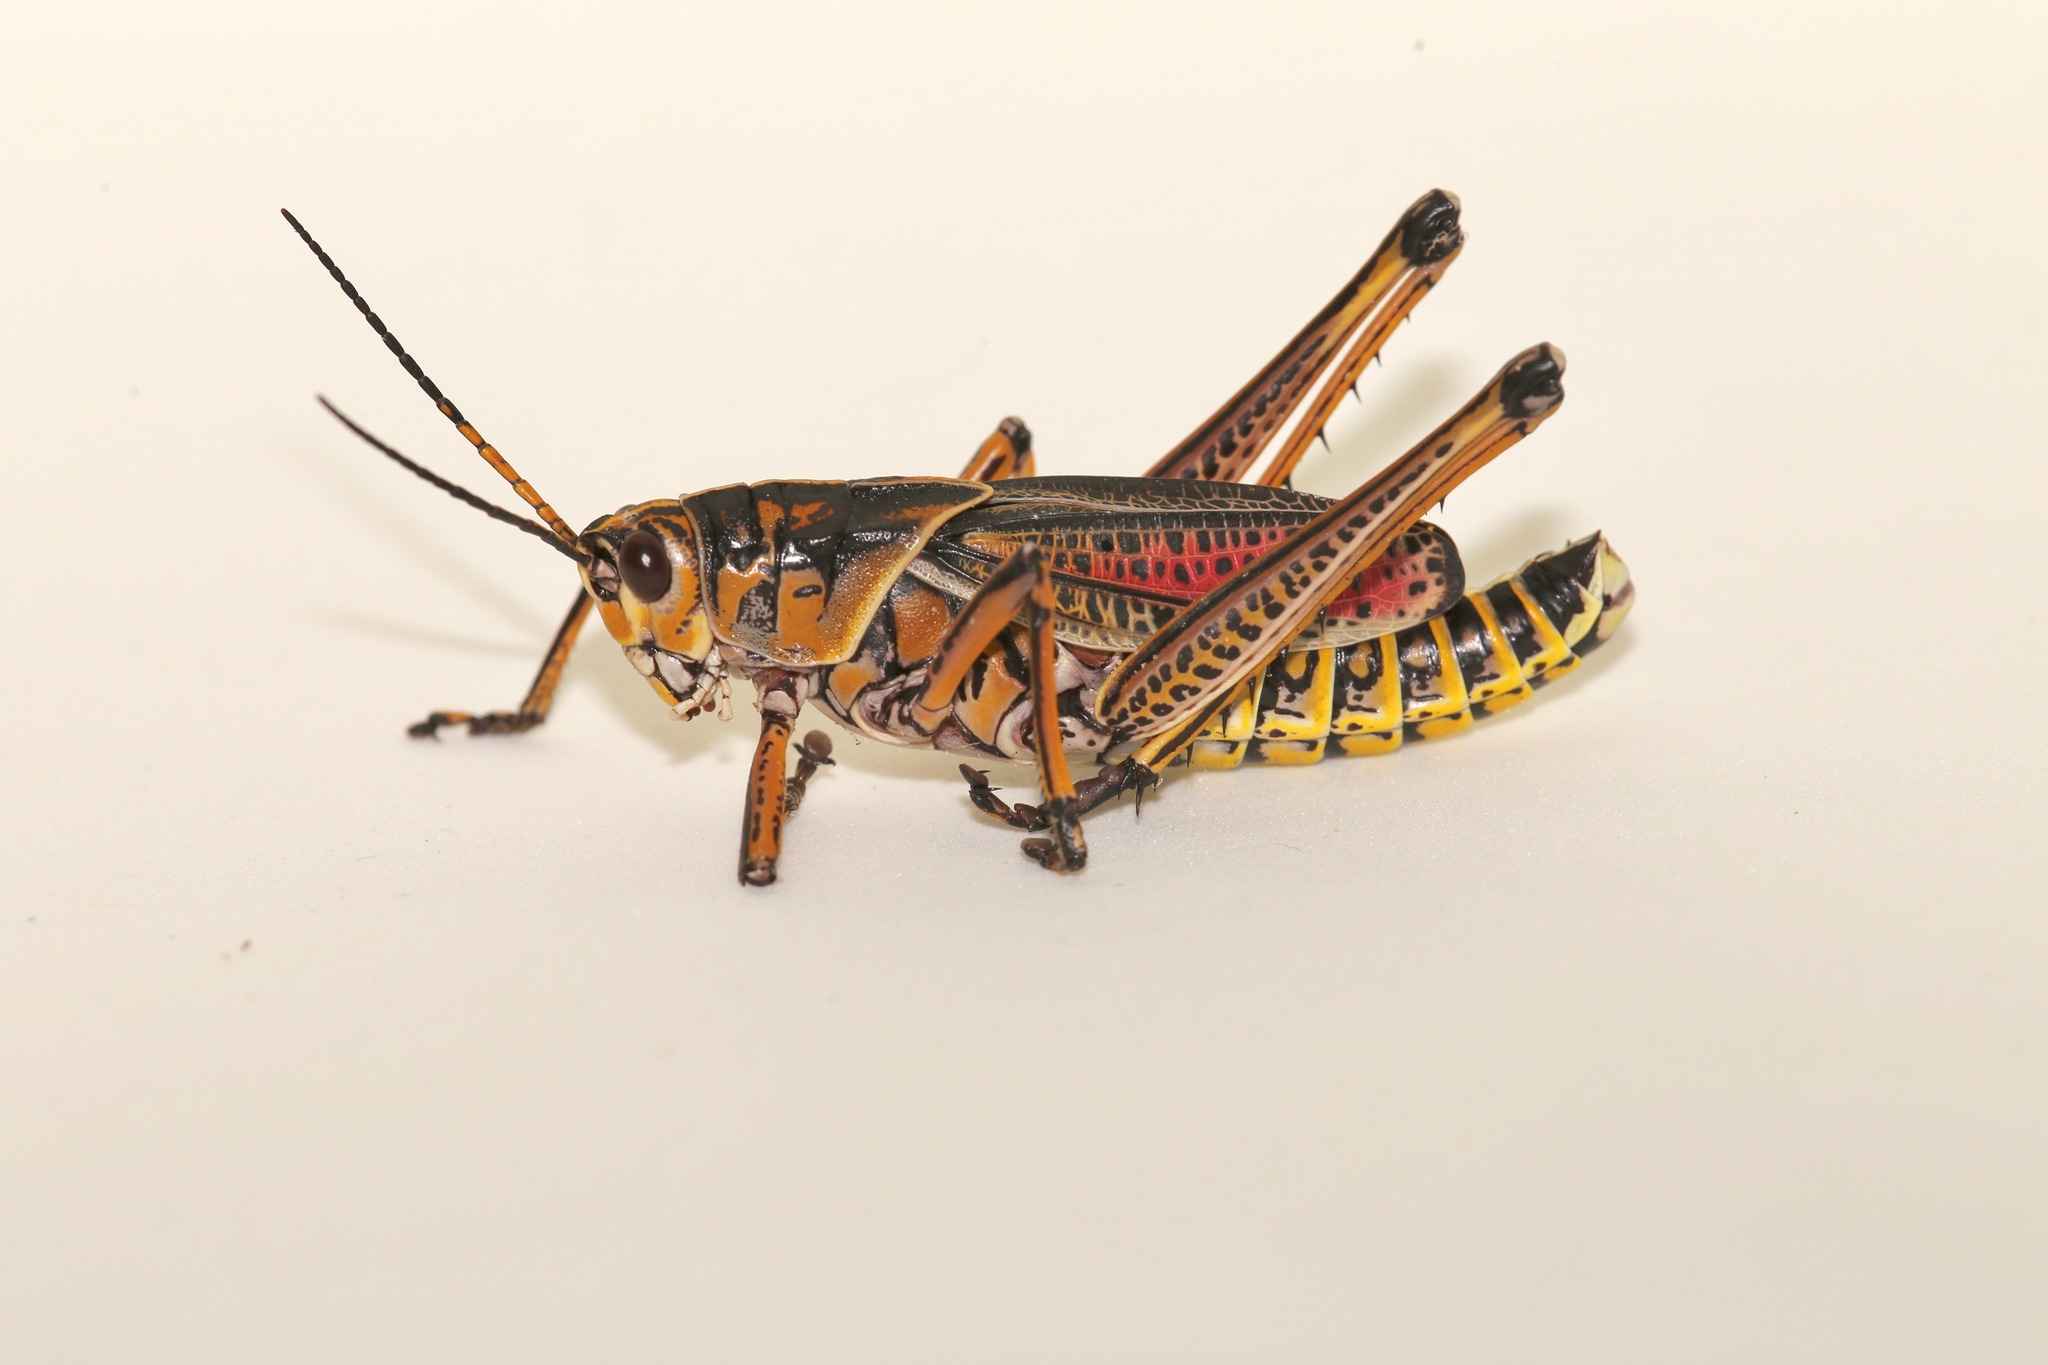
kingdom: Animalia
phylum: Arthropoda
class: Insecta
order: Orthoptera
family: Romaleidae
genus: Romalea
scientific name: Romalea microptera
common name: Eastern lubber grasshopper
